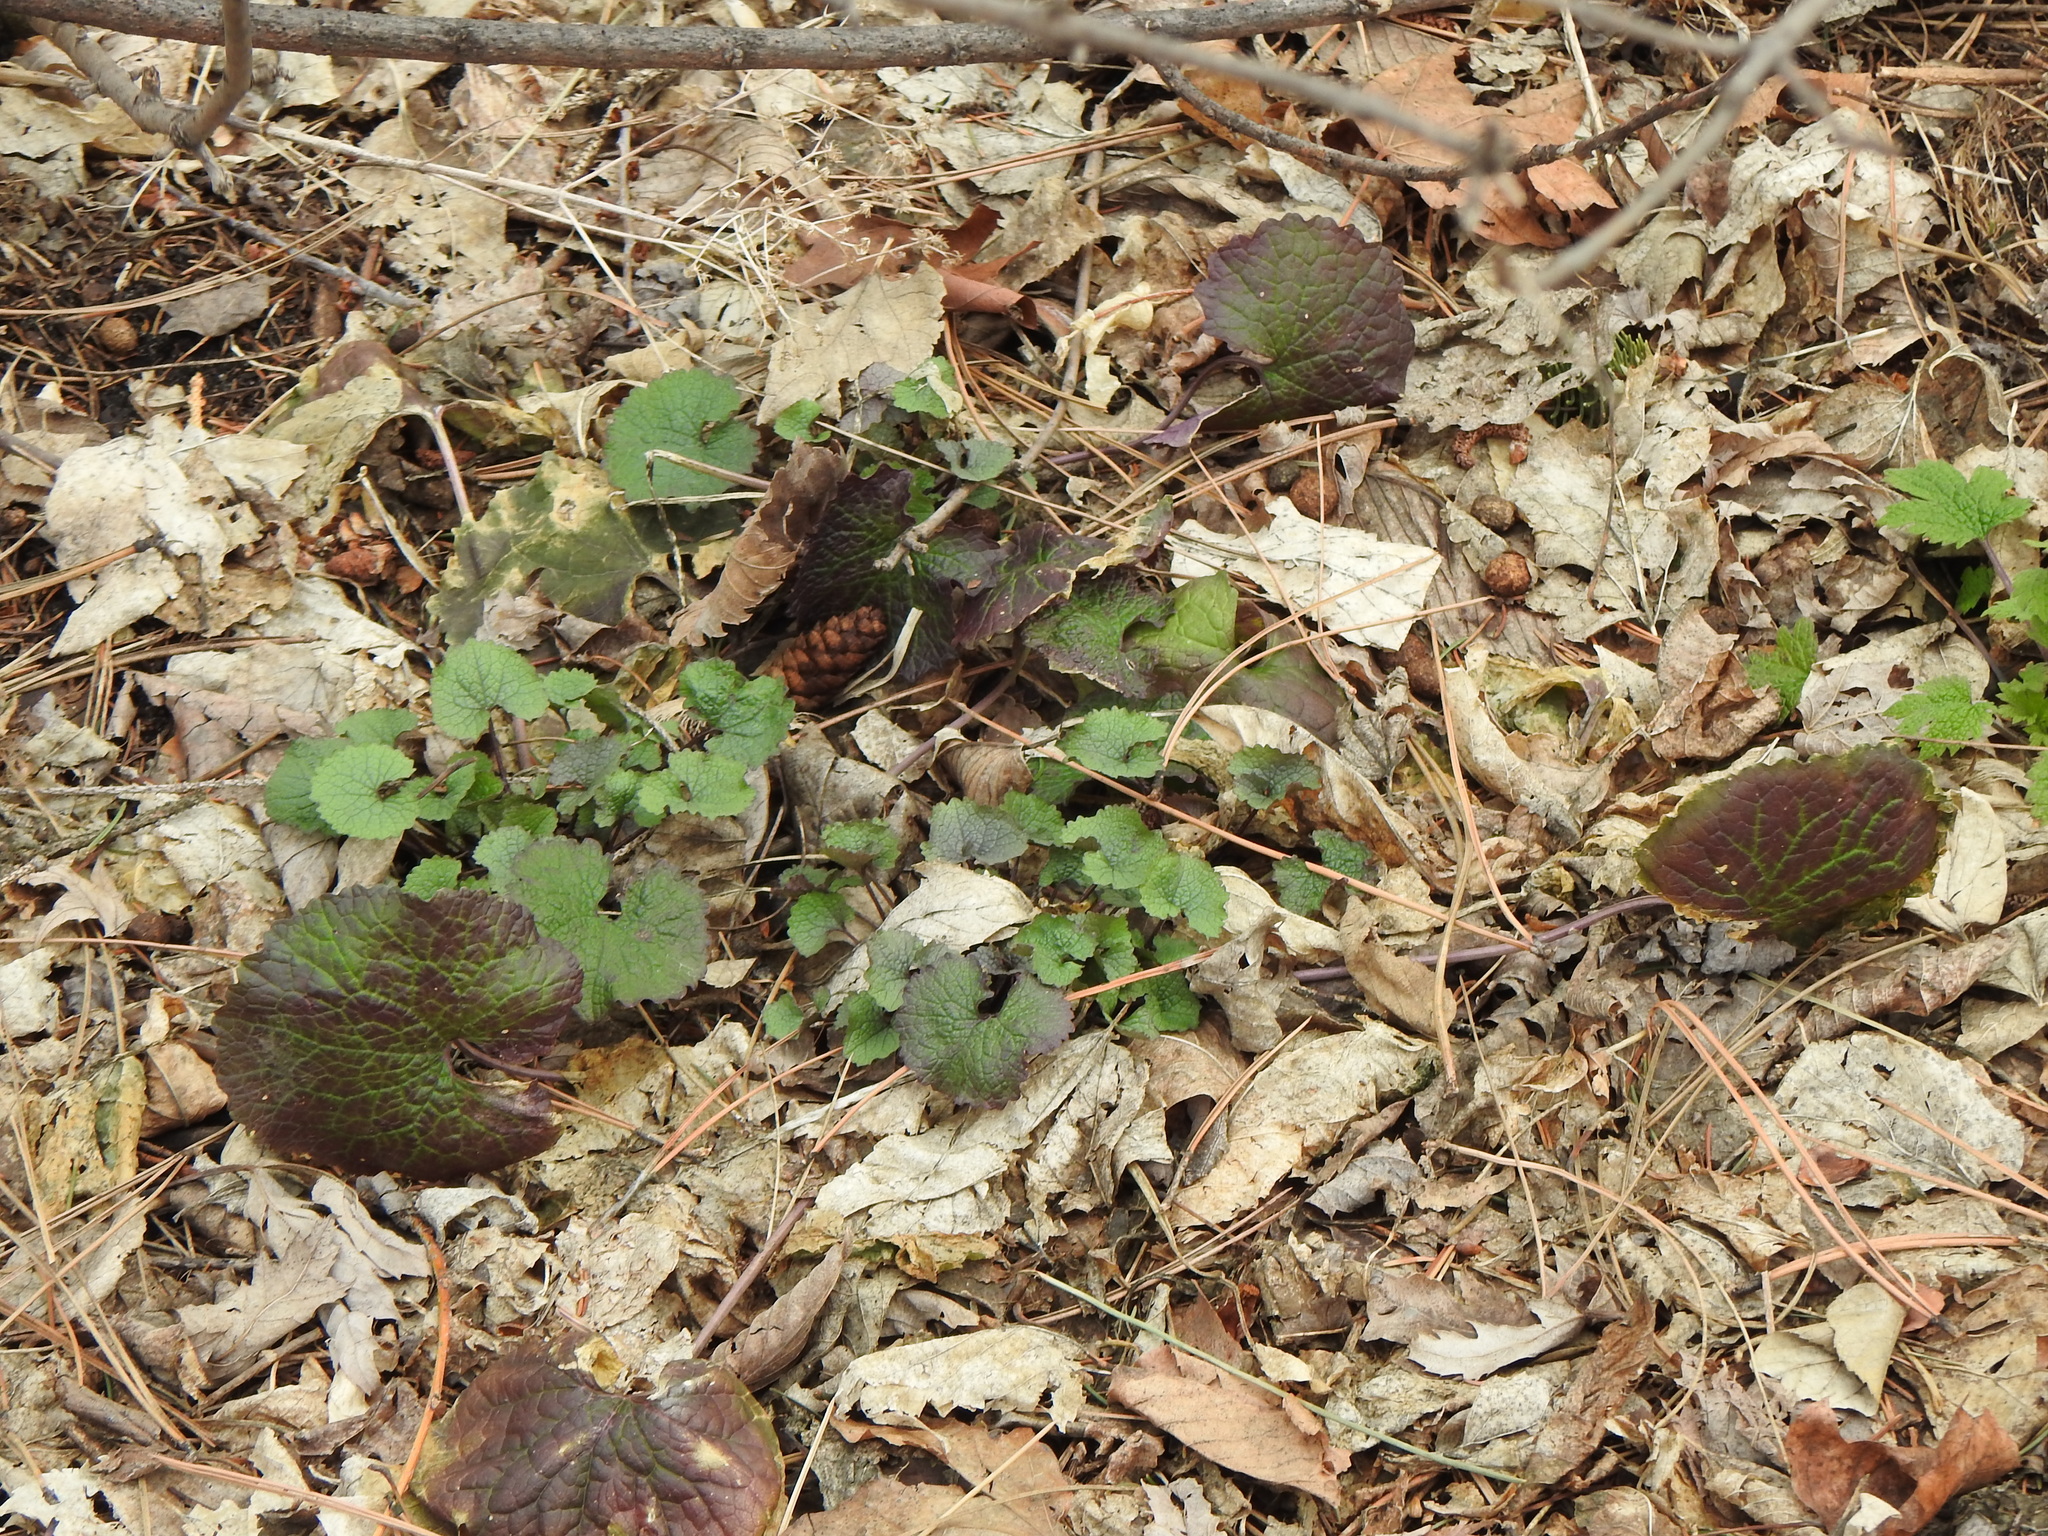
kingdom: Plantae
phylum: Tracheophyta
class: Magnoliopsida
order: Brassicales
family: Brassicaceae
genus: Alliaria
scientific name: Alliaria petiolata
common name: Garlic mustard
